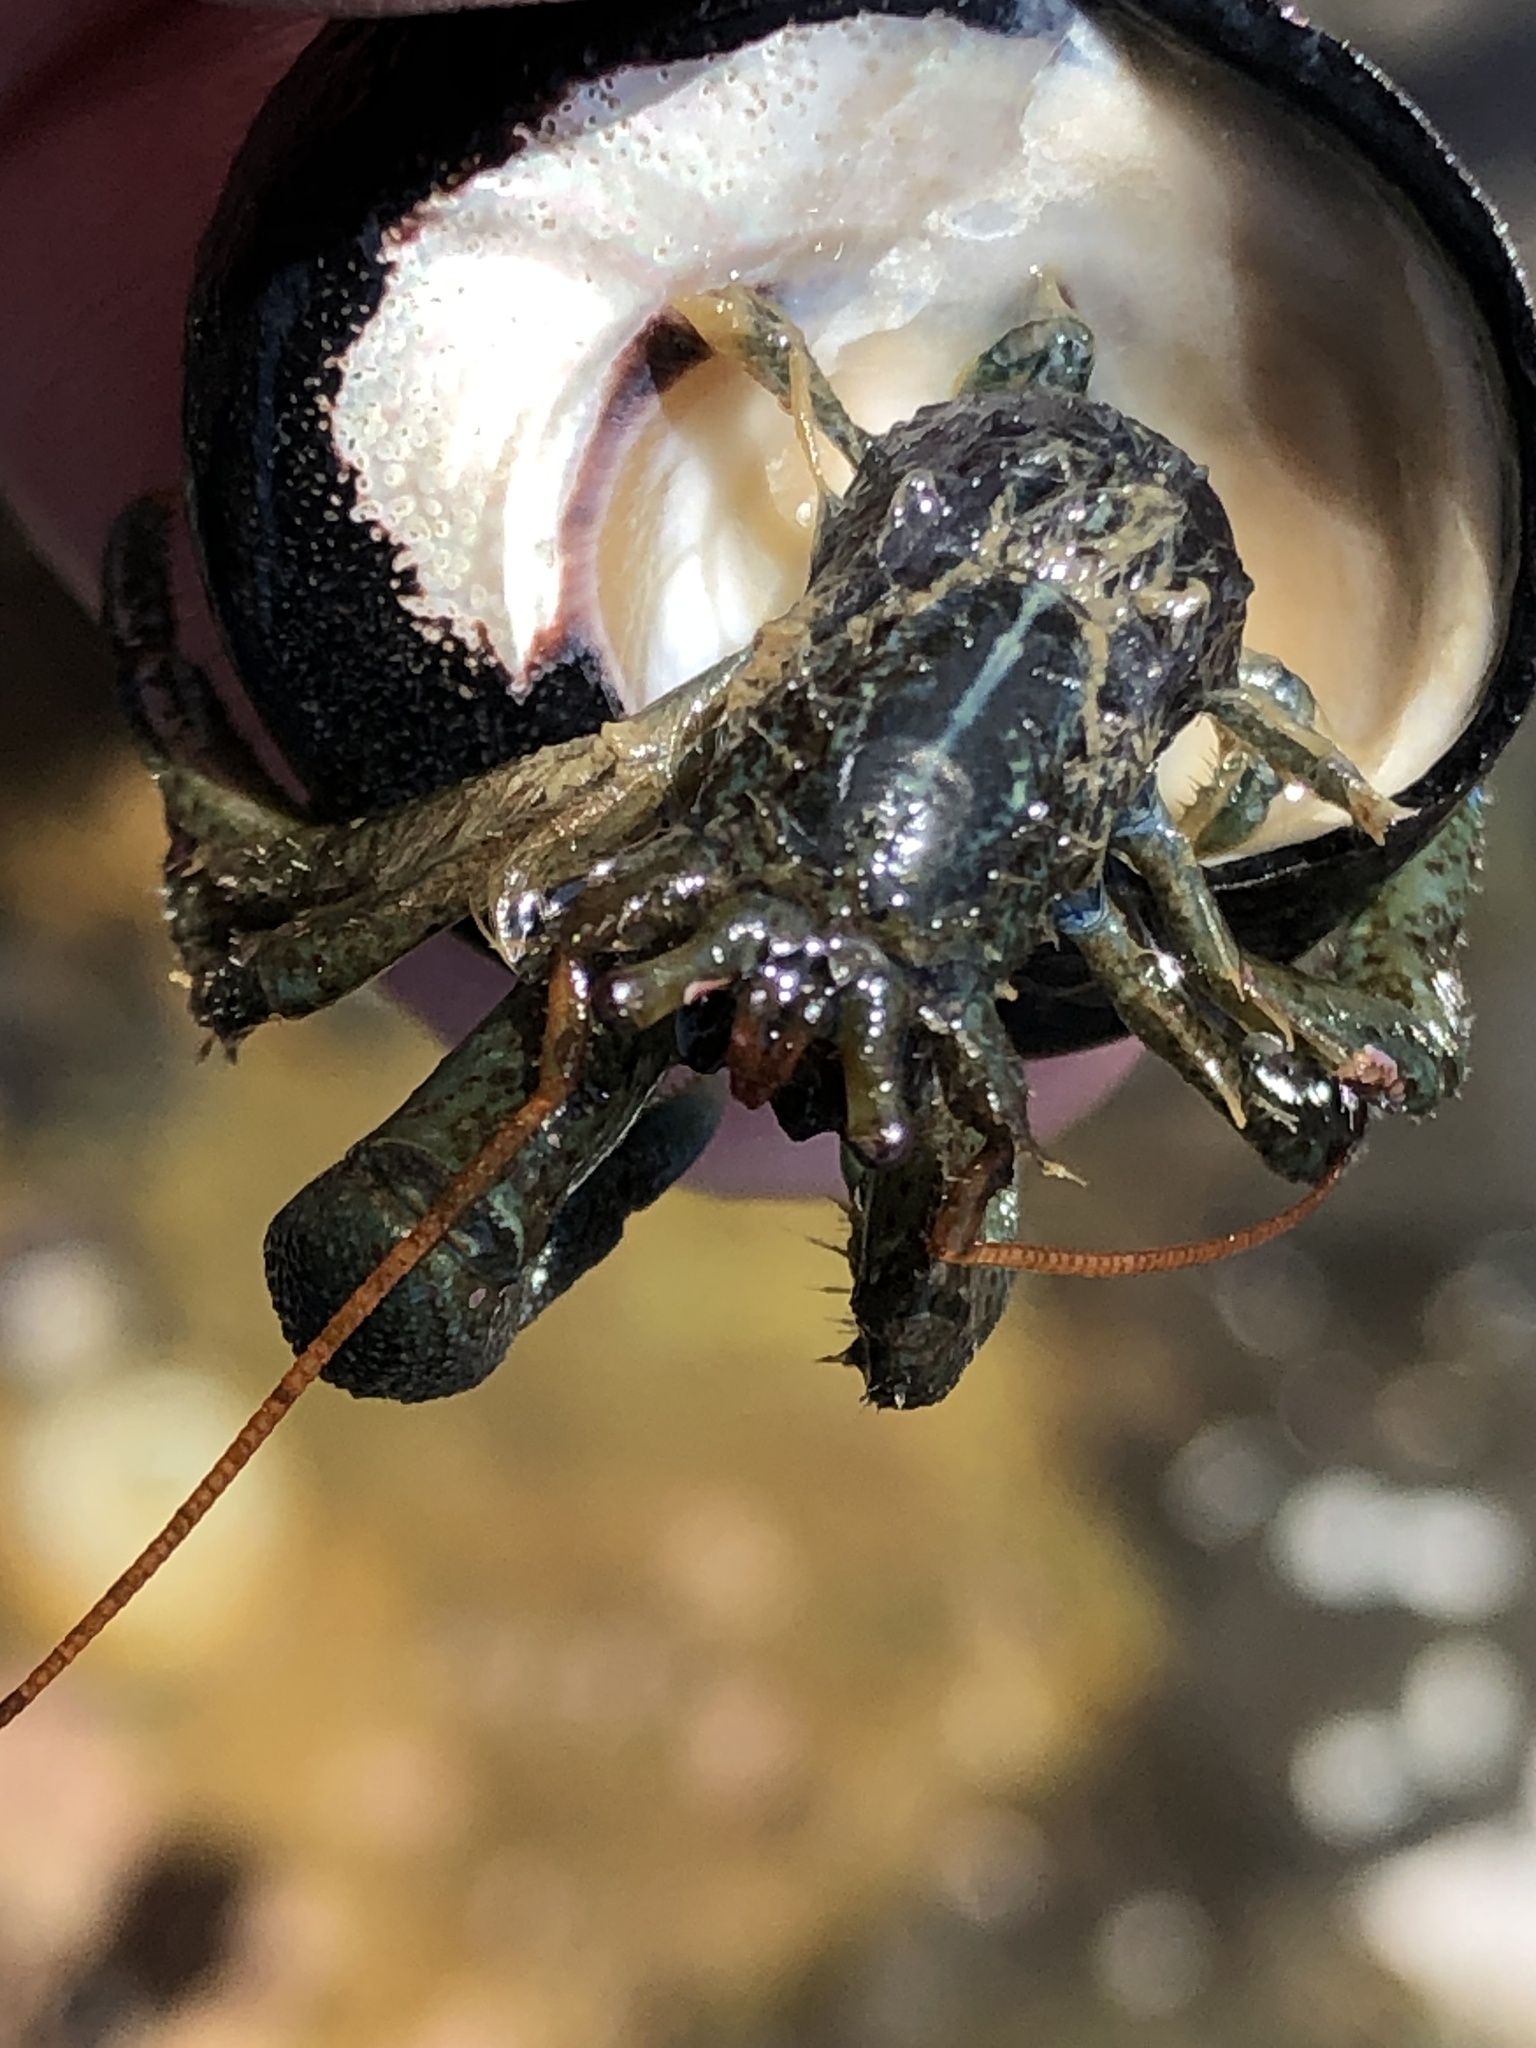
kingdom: Animalia
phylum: Arthropoda
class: Malacostraca
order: Decapoda
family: Paguridae
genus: Pagurus
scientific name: Pagurus samuelis
